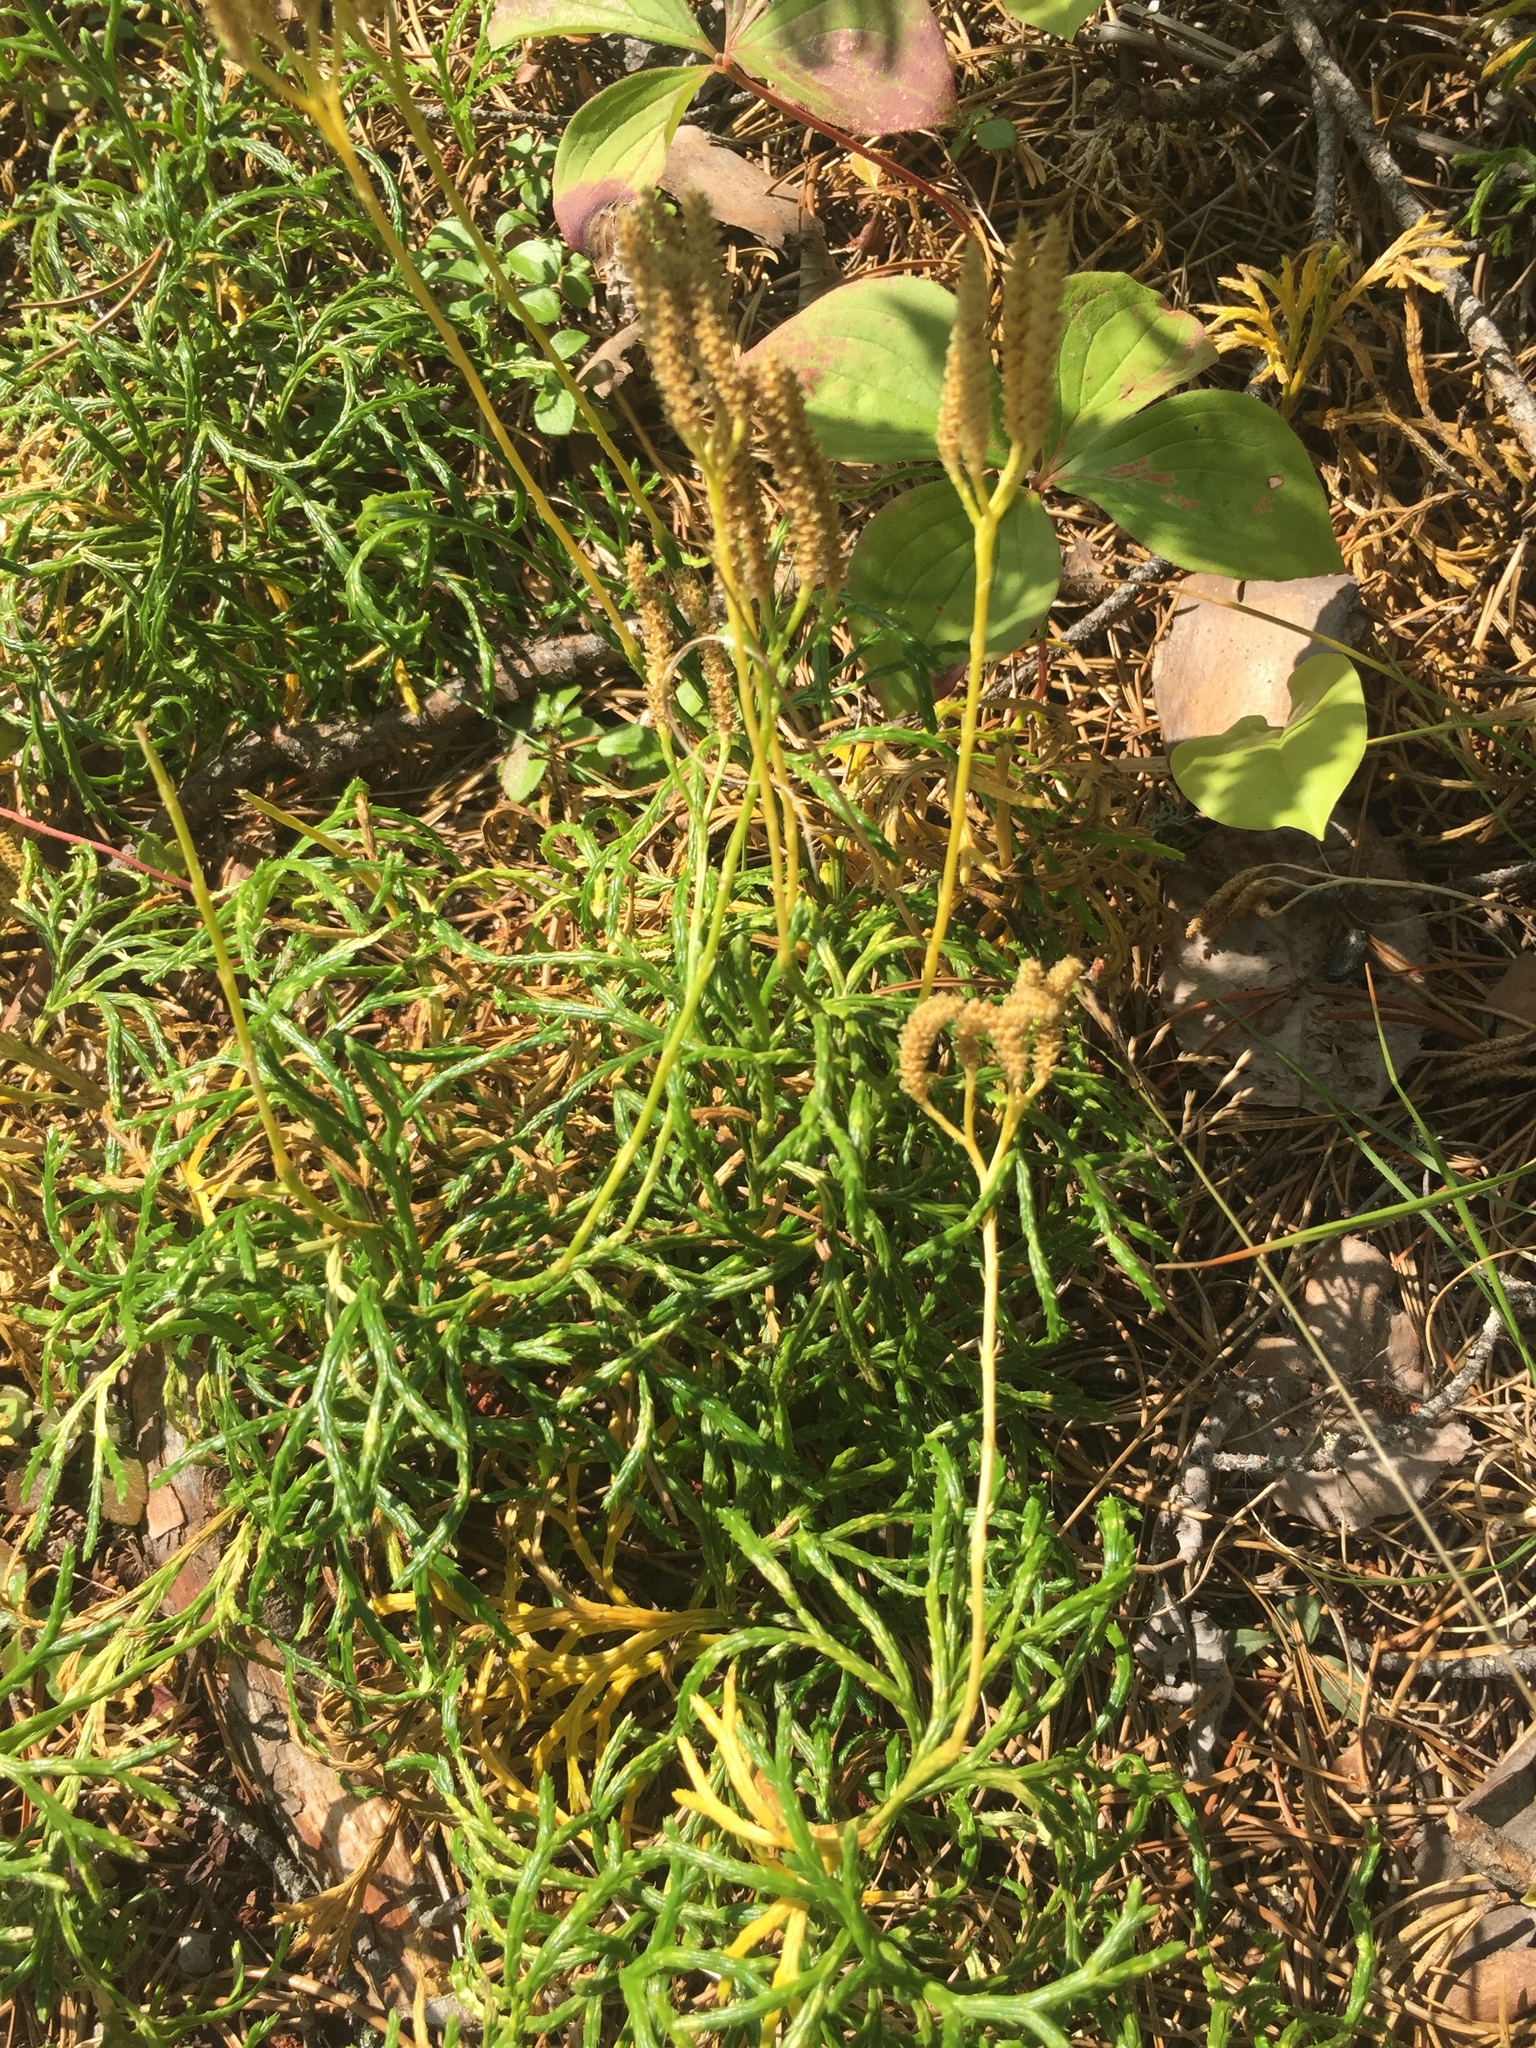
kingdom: Plantae
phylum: Tracheophyta
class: Lycopodiopsida
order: Lycopodiales
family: Lycopodiaceae
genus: Diphasiastrum
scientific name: Diphasiastrum complanatum
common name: Northern running-pine
